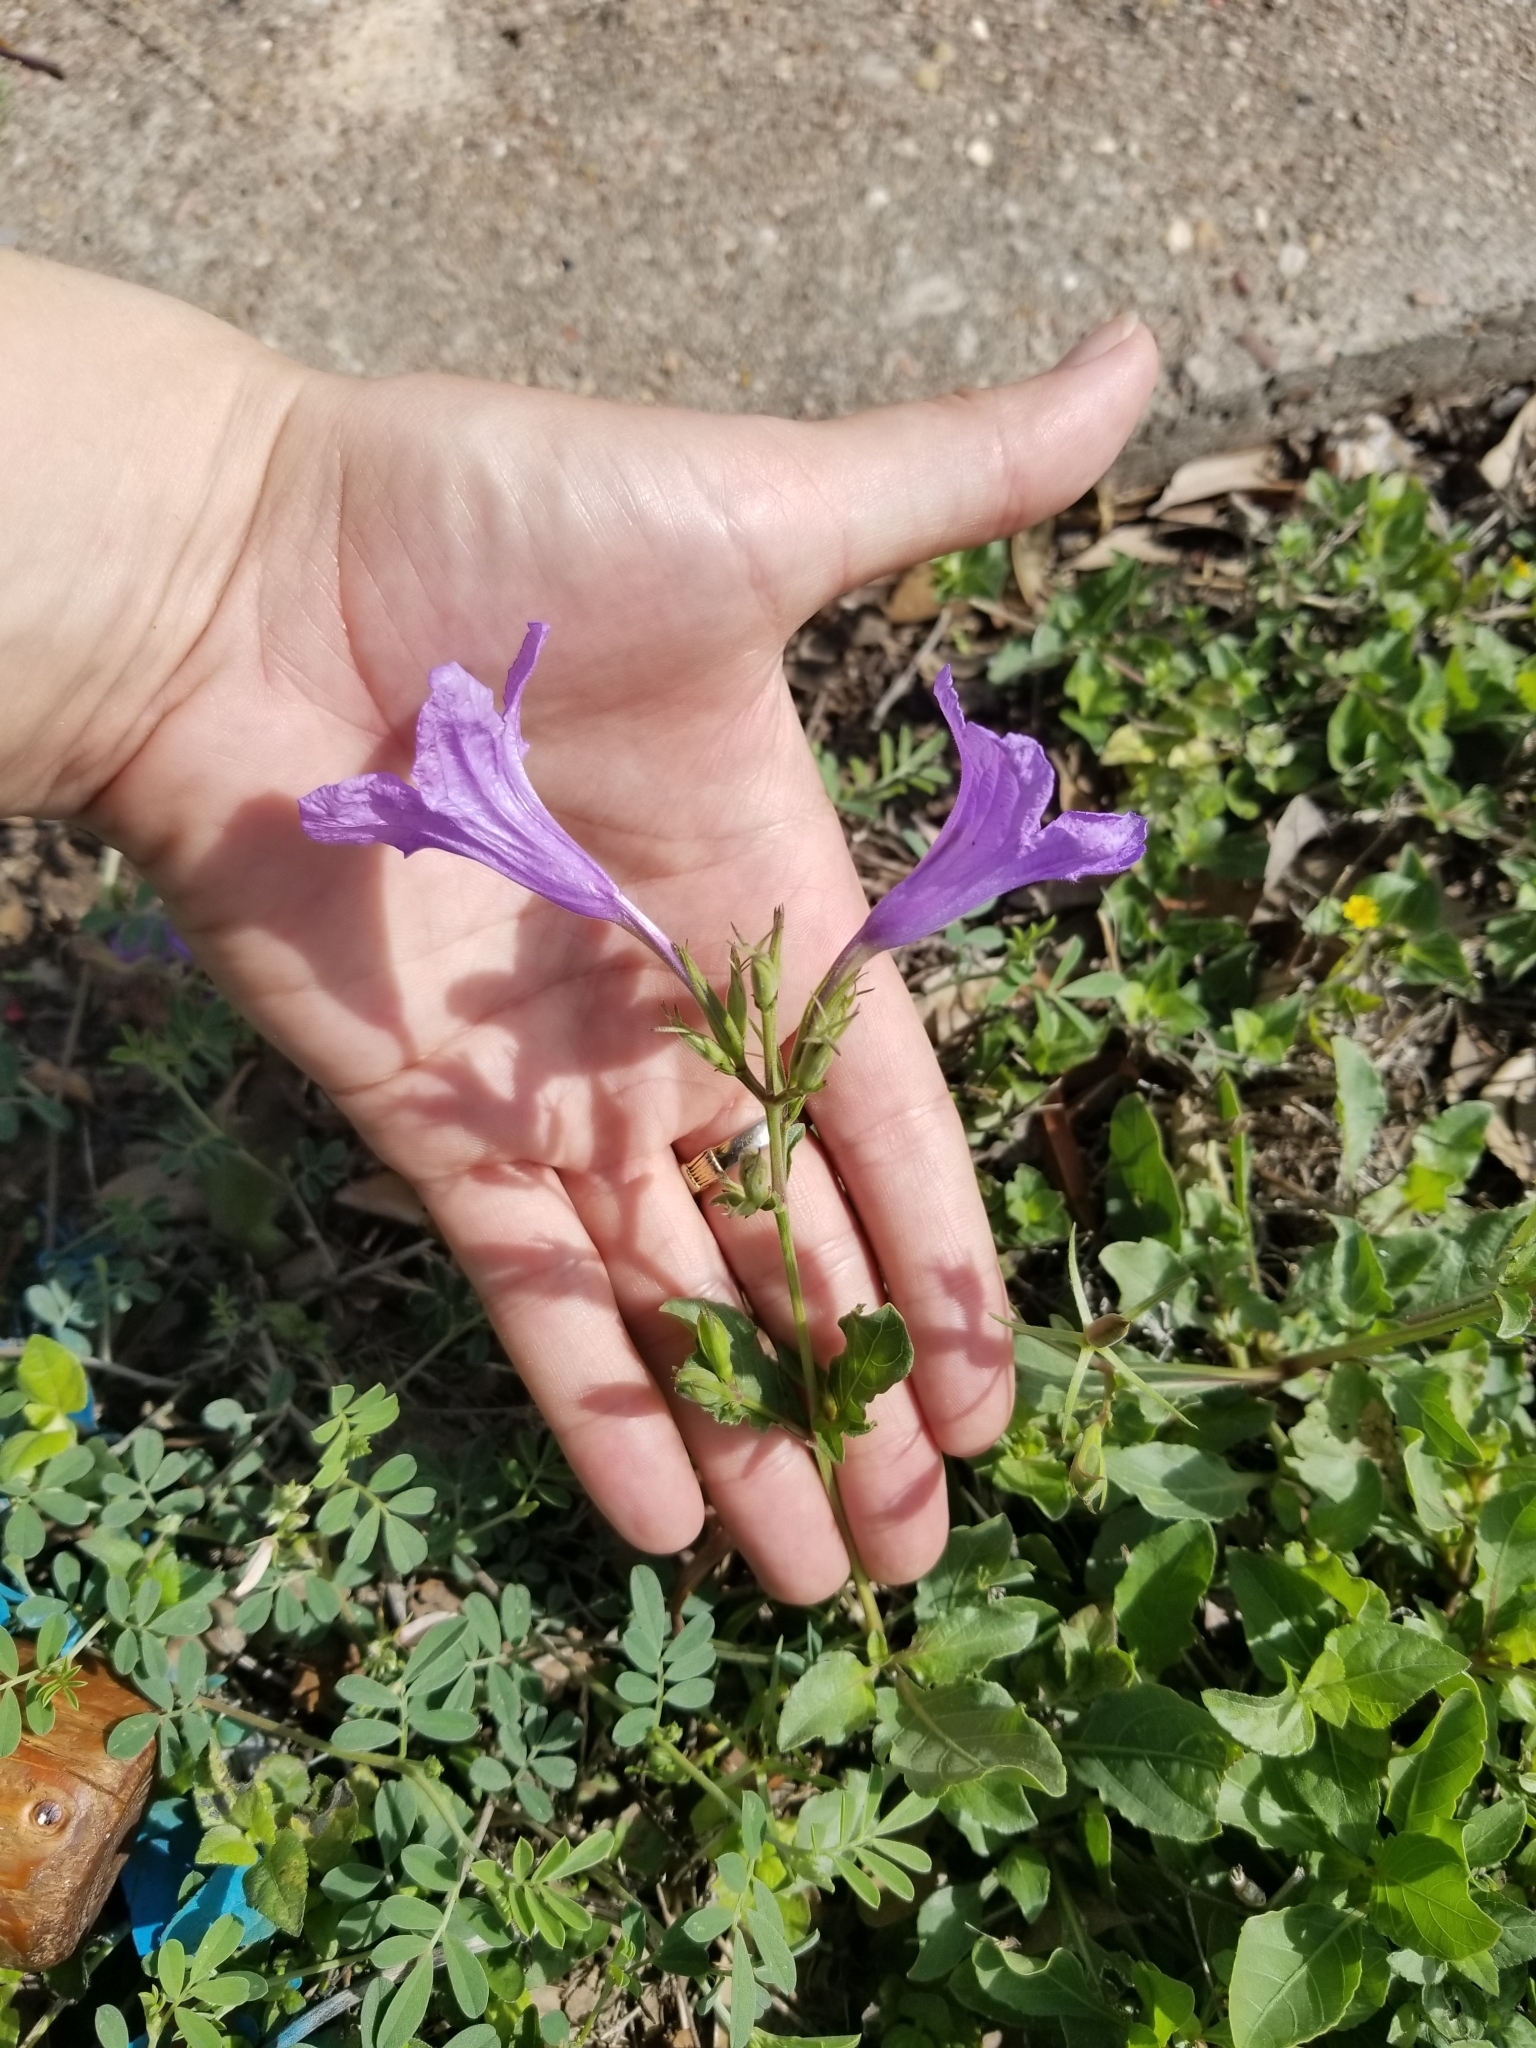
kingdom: Plantae
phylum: Tracheophyta
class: Magnoliopsida
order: Lamiales
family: Acanthaceae
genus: Ruellia
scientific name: Ruellia ciliatiflora
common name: Hairyflower wild petunia
